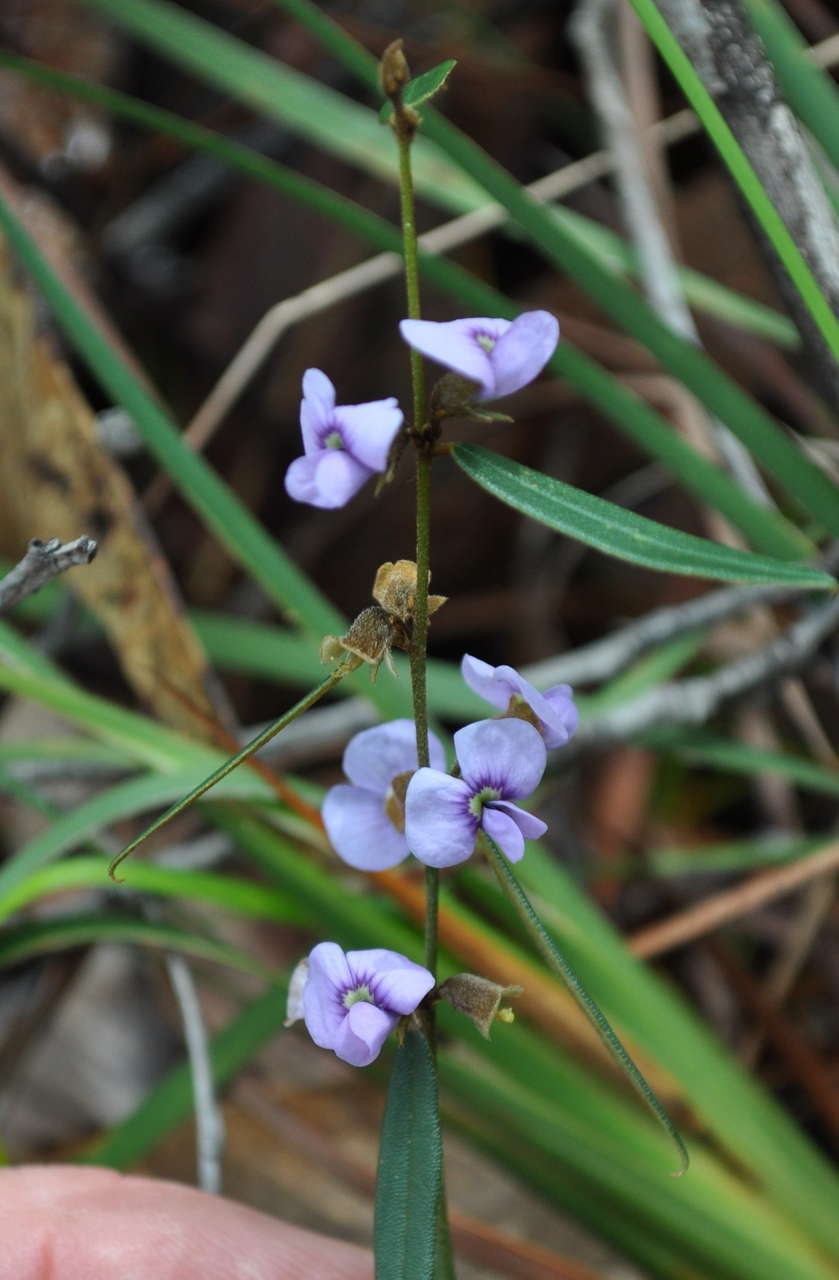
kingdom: Plantae
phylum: Tracheophyta
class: Magnoliopsida
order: Fabales
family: Fabaceae
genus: Hovea
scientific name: Hovea heterophylla
